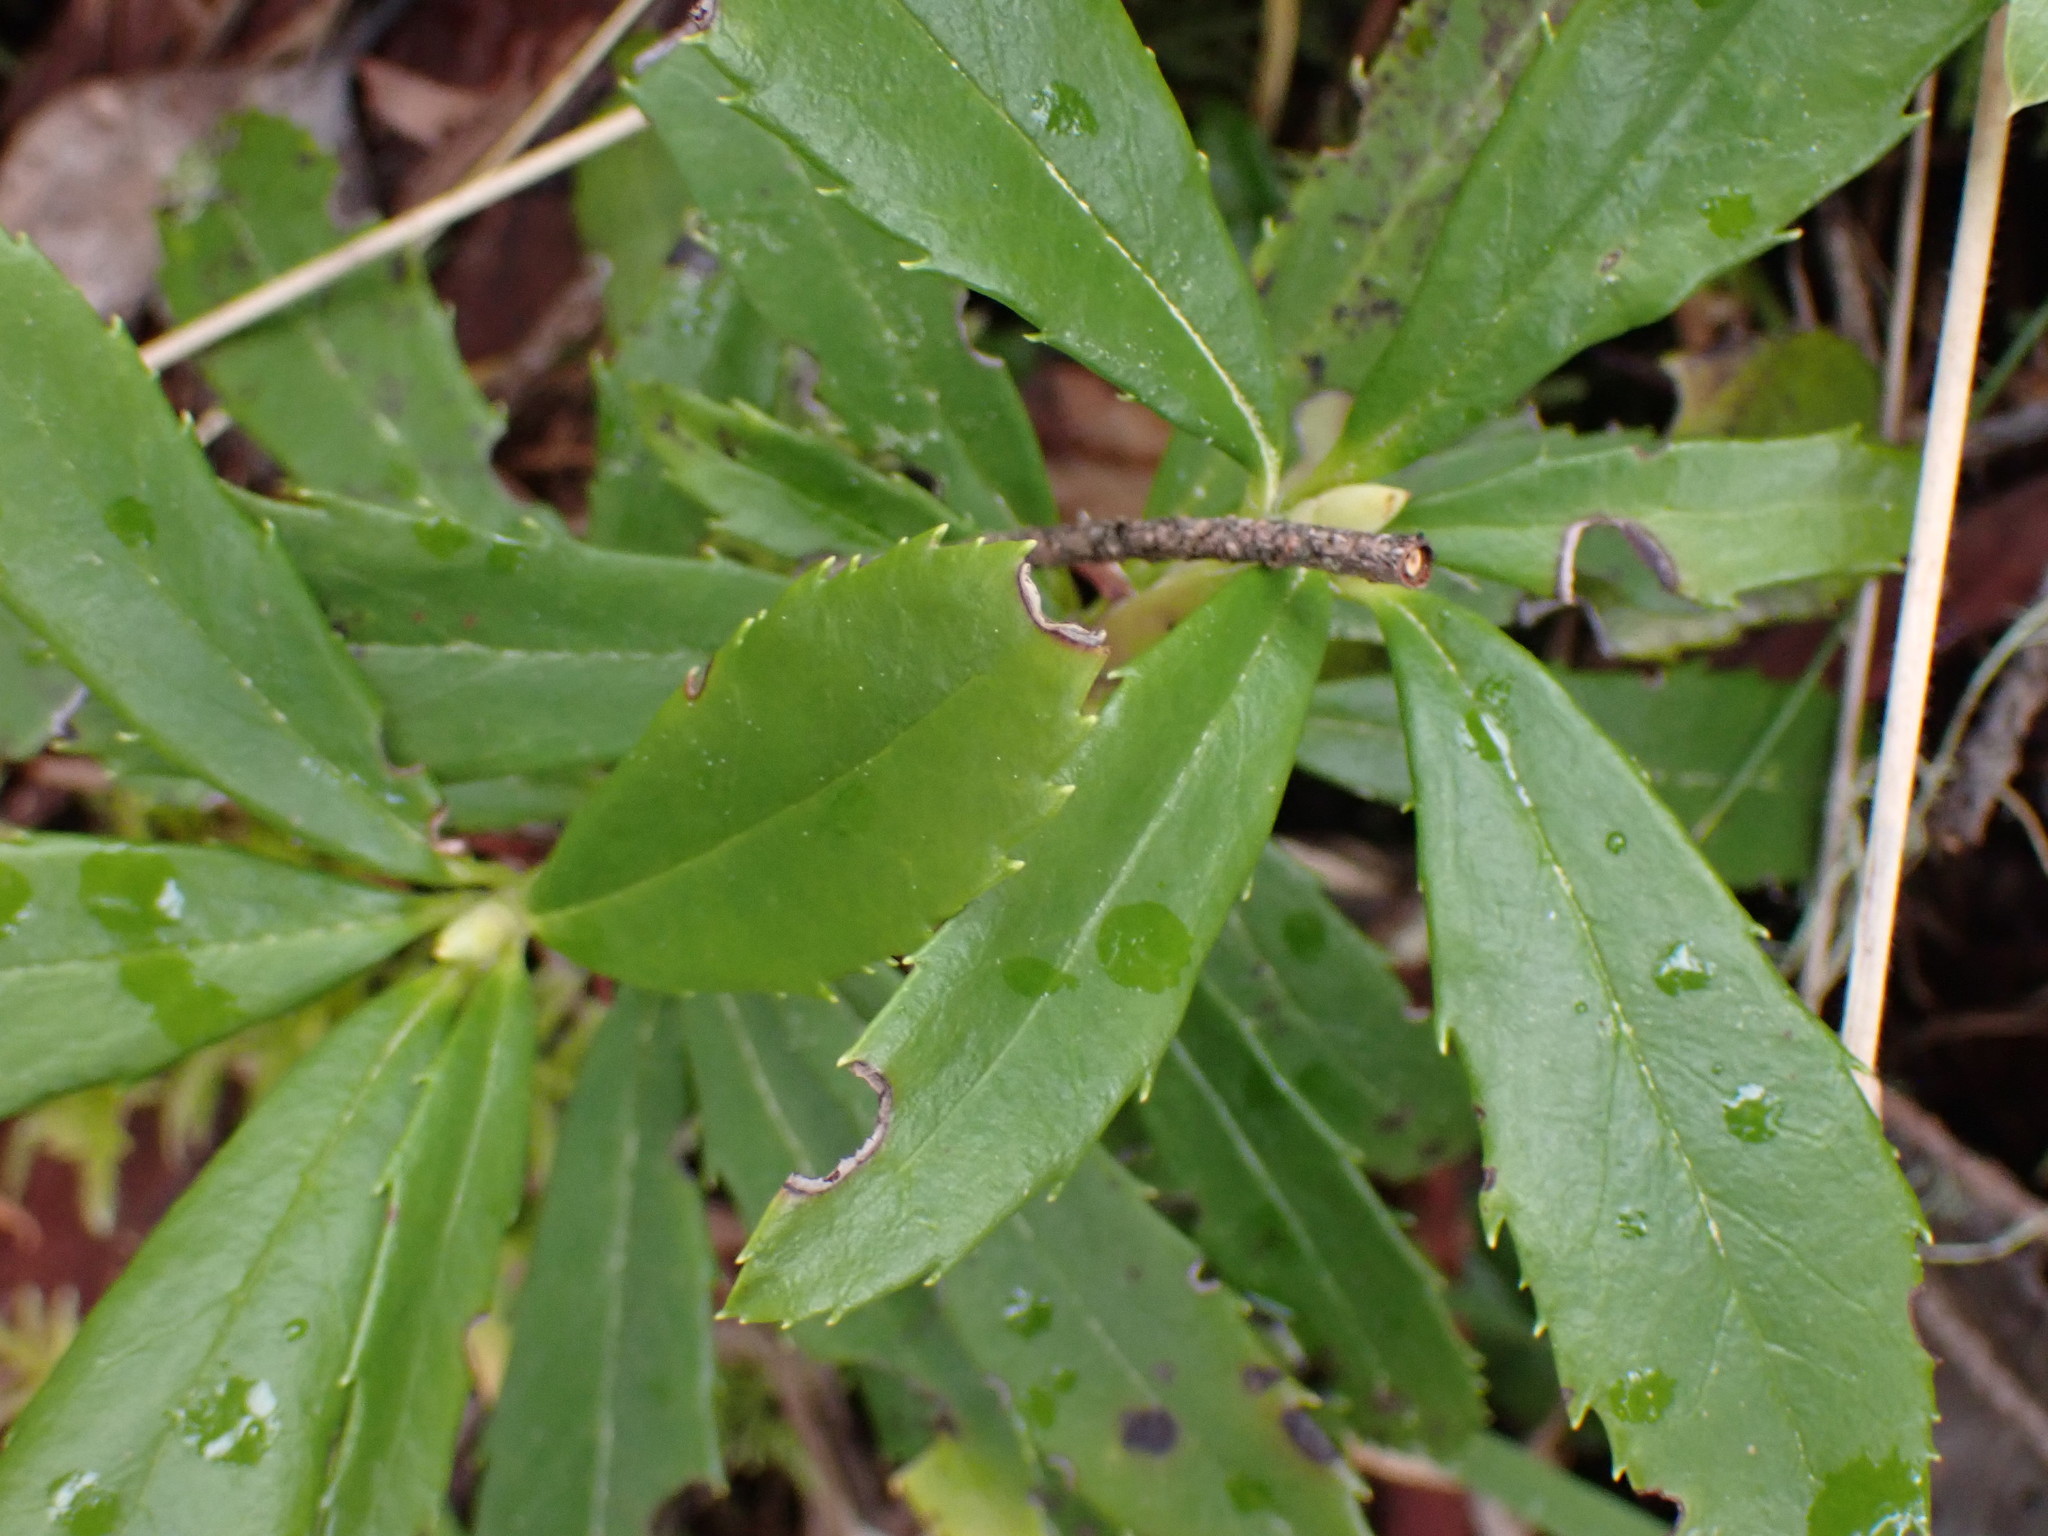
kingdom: Plantae
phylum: Tracheophyta
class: Magnoliopsida
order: Ericales
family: Ericaceae
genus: Chimaphila
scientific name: Chimaphila umbellata
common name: Pipsissewa
